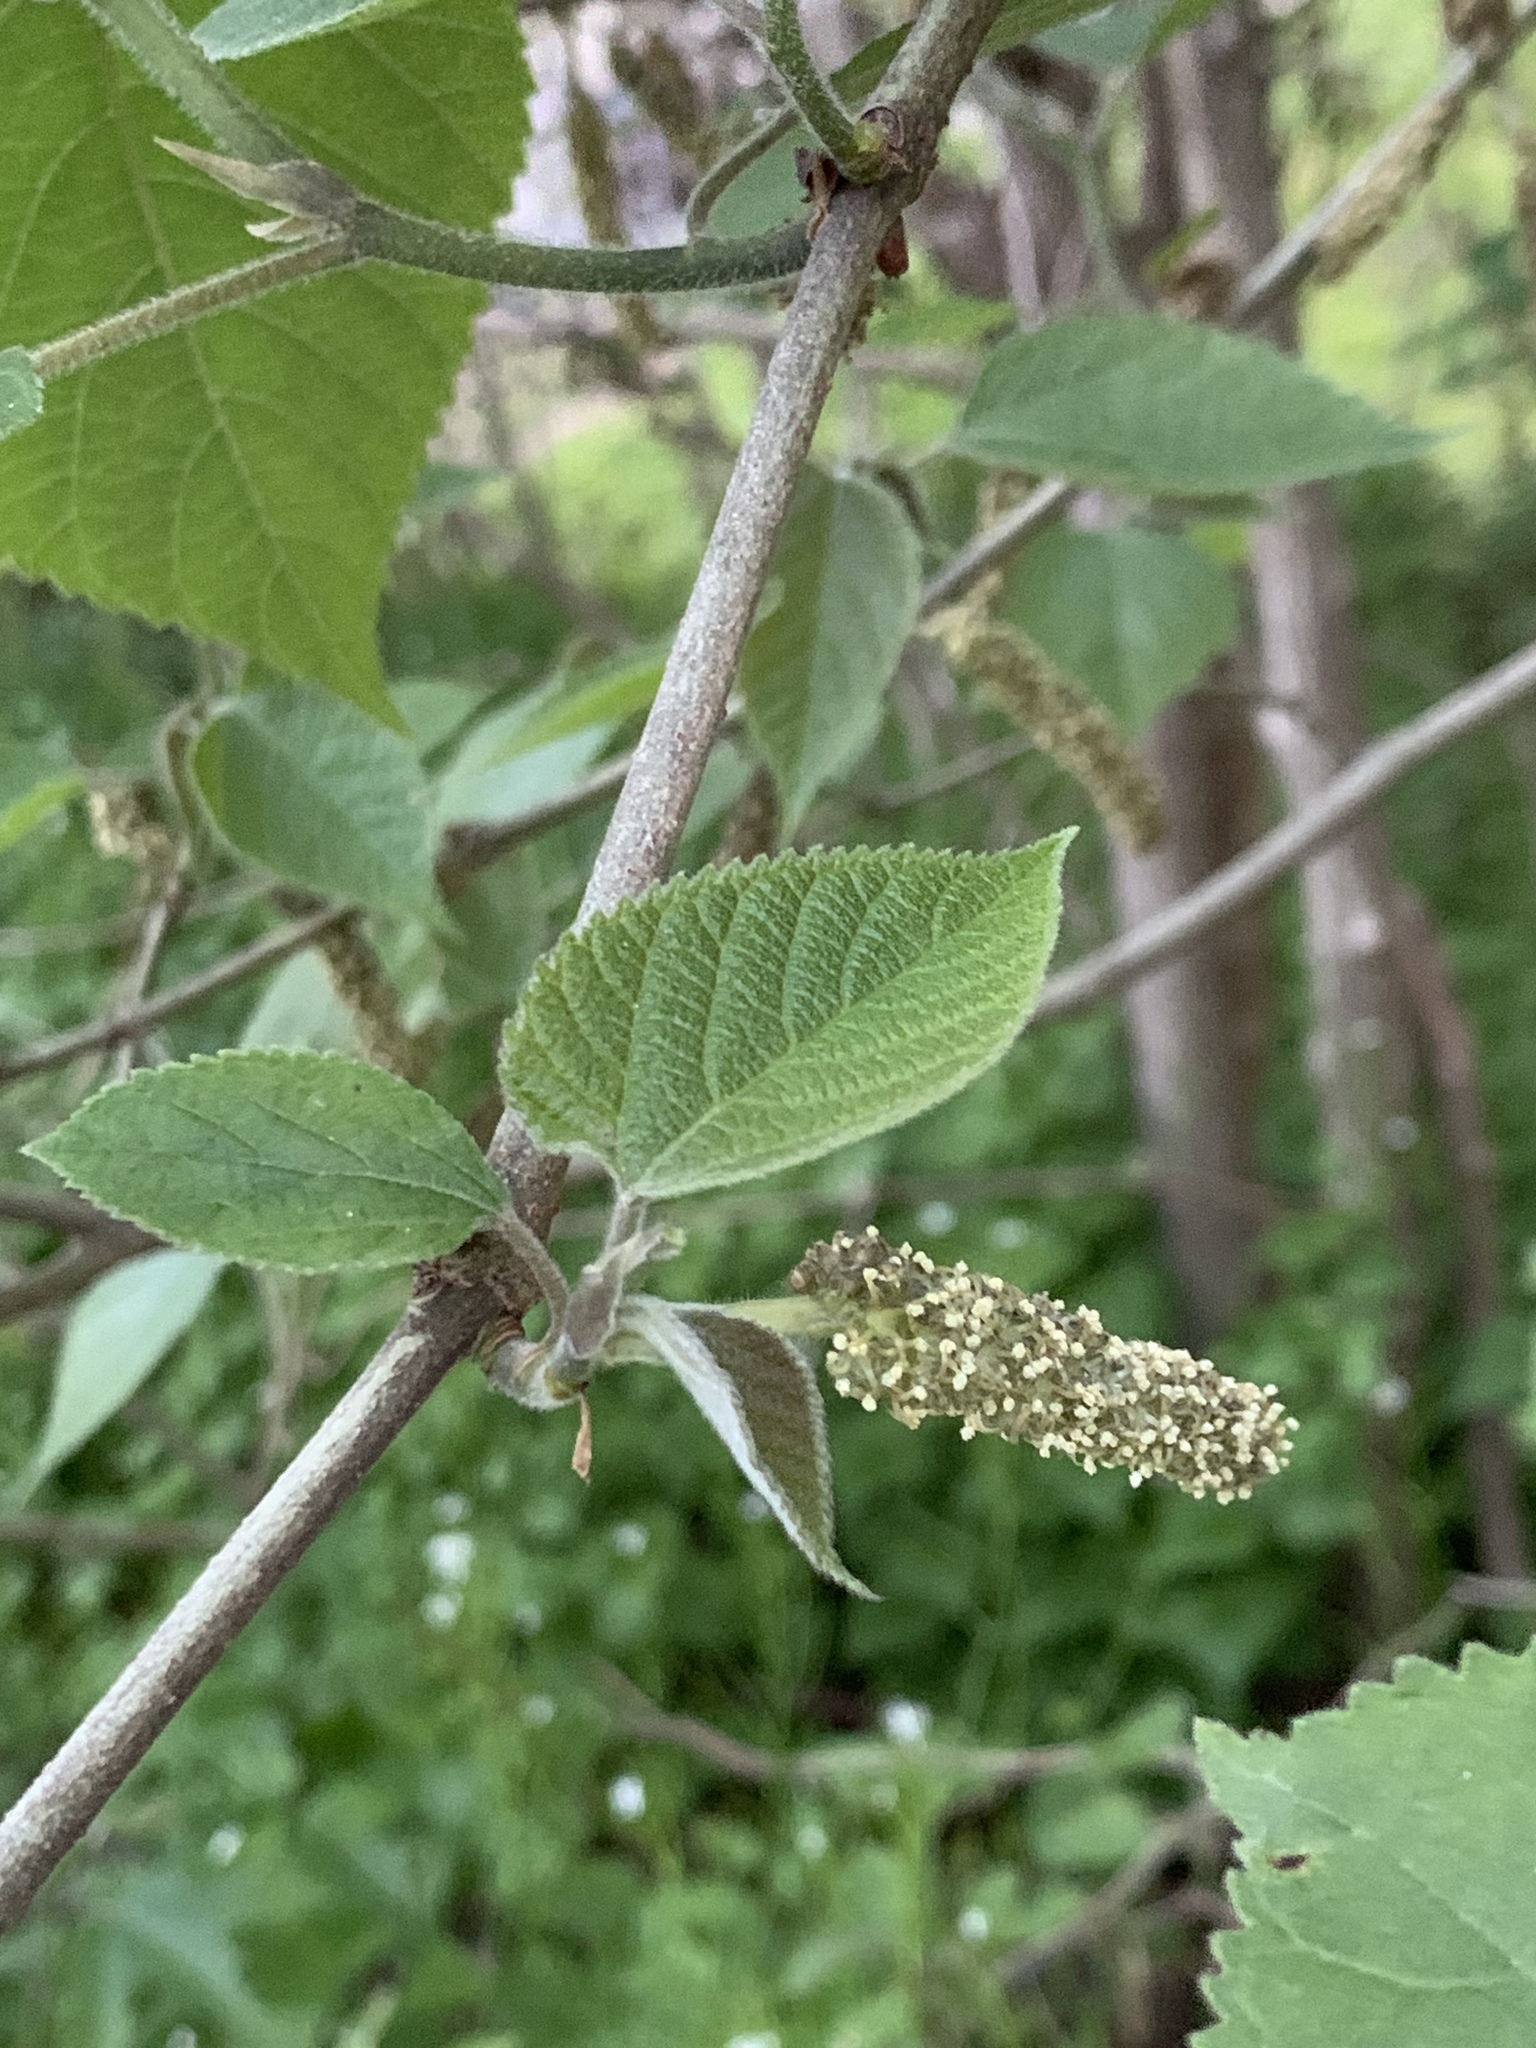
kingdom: Plantae
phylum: Tracheophyta
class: Magnoliopsida
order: Rosales
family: Moraceae
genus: Broussonetia
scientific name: Broussonetia papyrifera
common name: Paper mulberry
